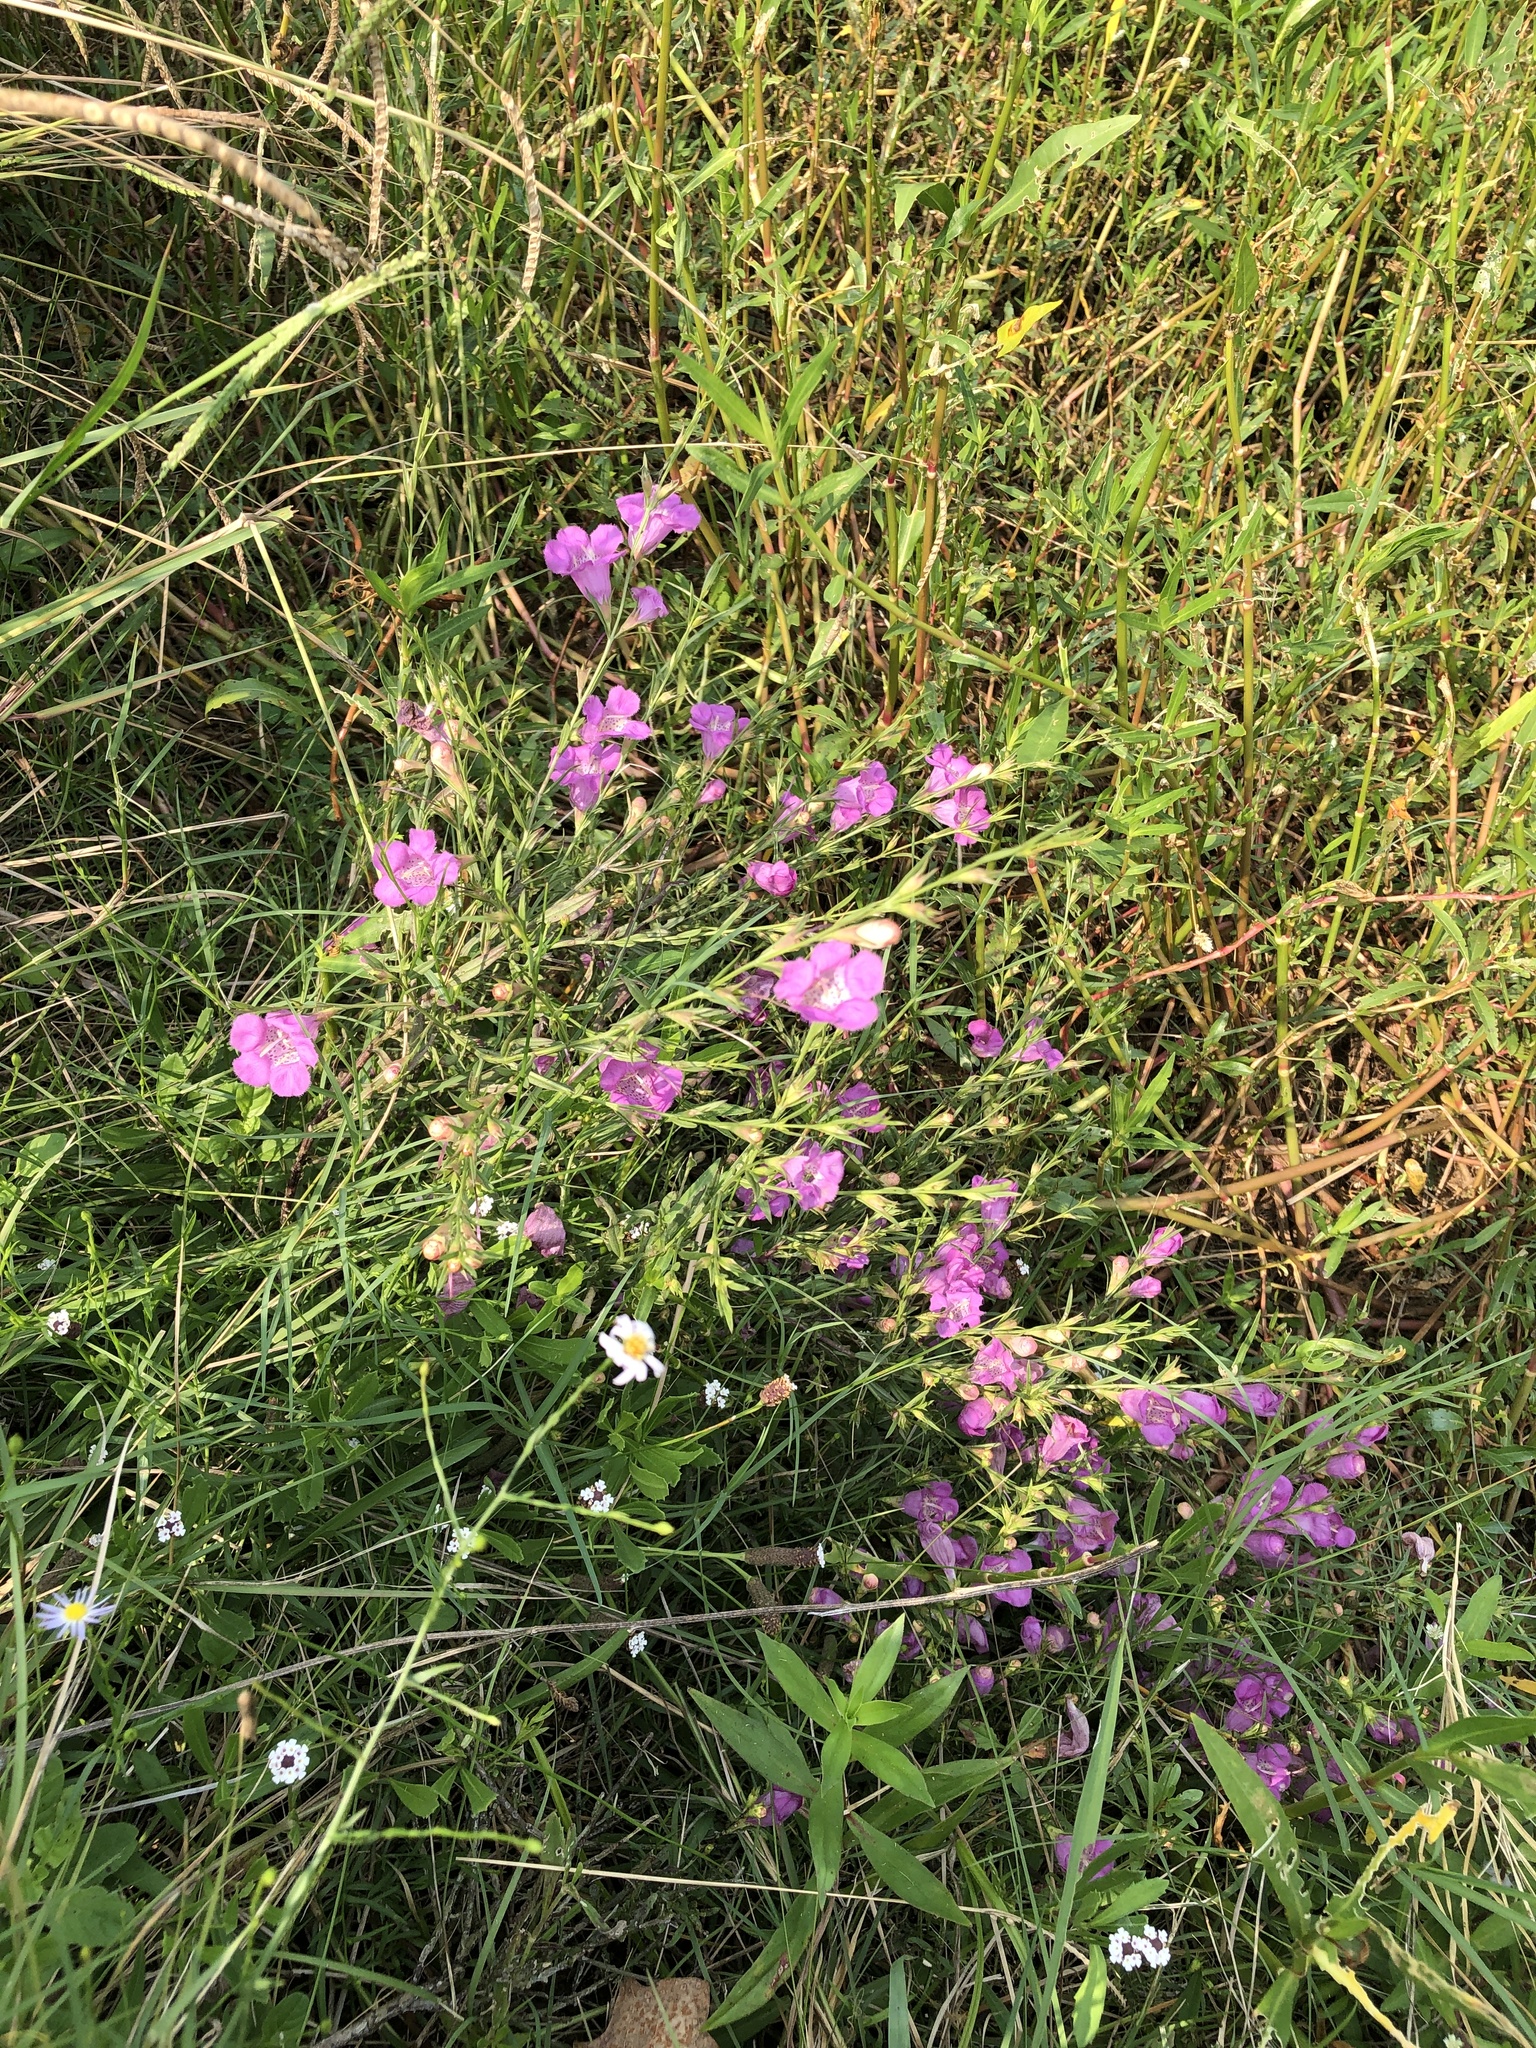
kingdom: Plantae
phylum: Tracheophyta
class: Magnoliopsida
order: Lamiales
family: Orobanchaceae
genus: Agalinis
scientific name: Agalinis heterophylla
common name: Prairie agalinis
